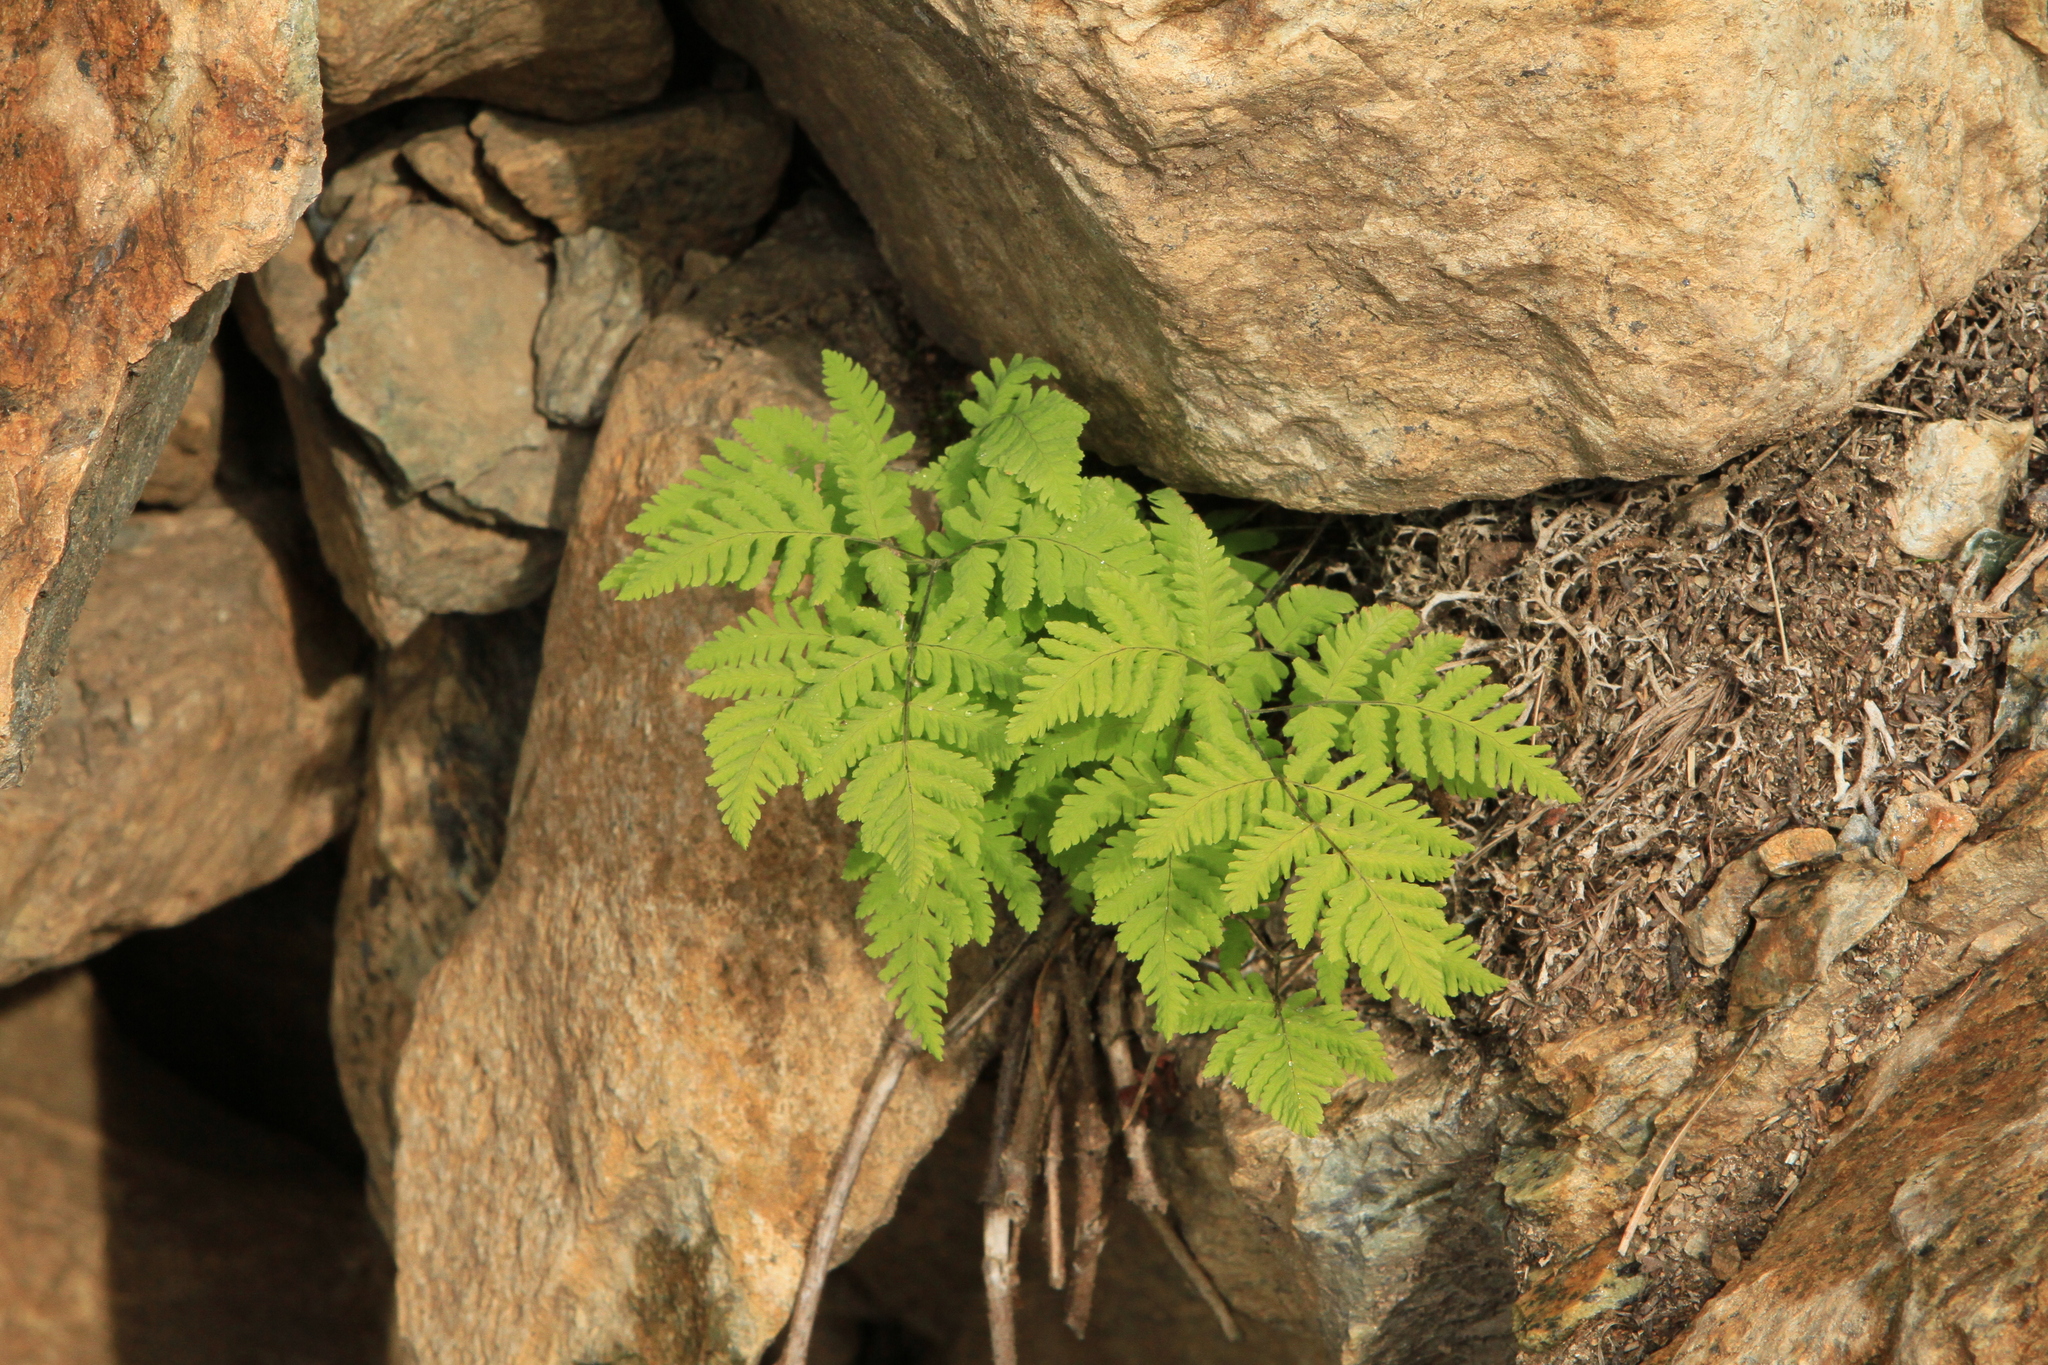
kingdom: Plantae
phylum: Tracheophyta
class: Polypodiopsida
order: Polypodiales
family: Cystopteridaceae
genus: Gymnocarpium
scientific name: Gymnocarpium jessoense
